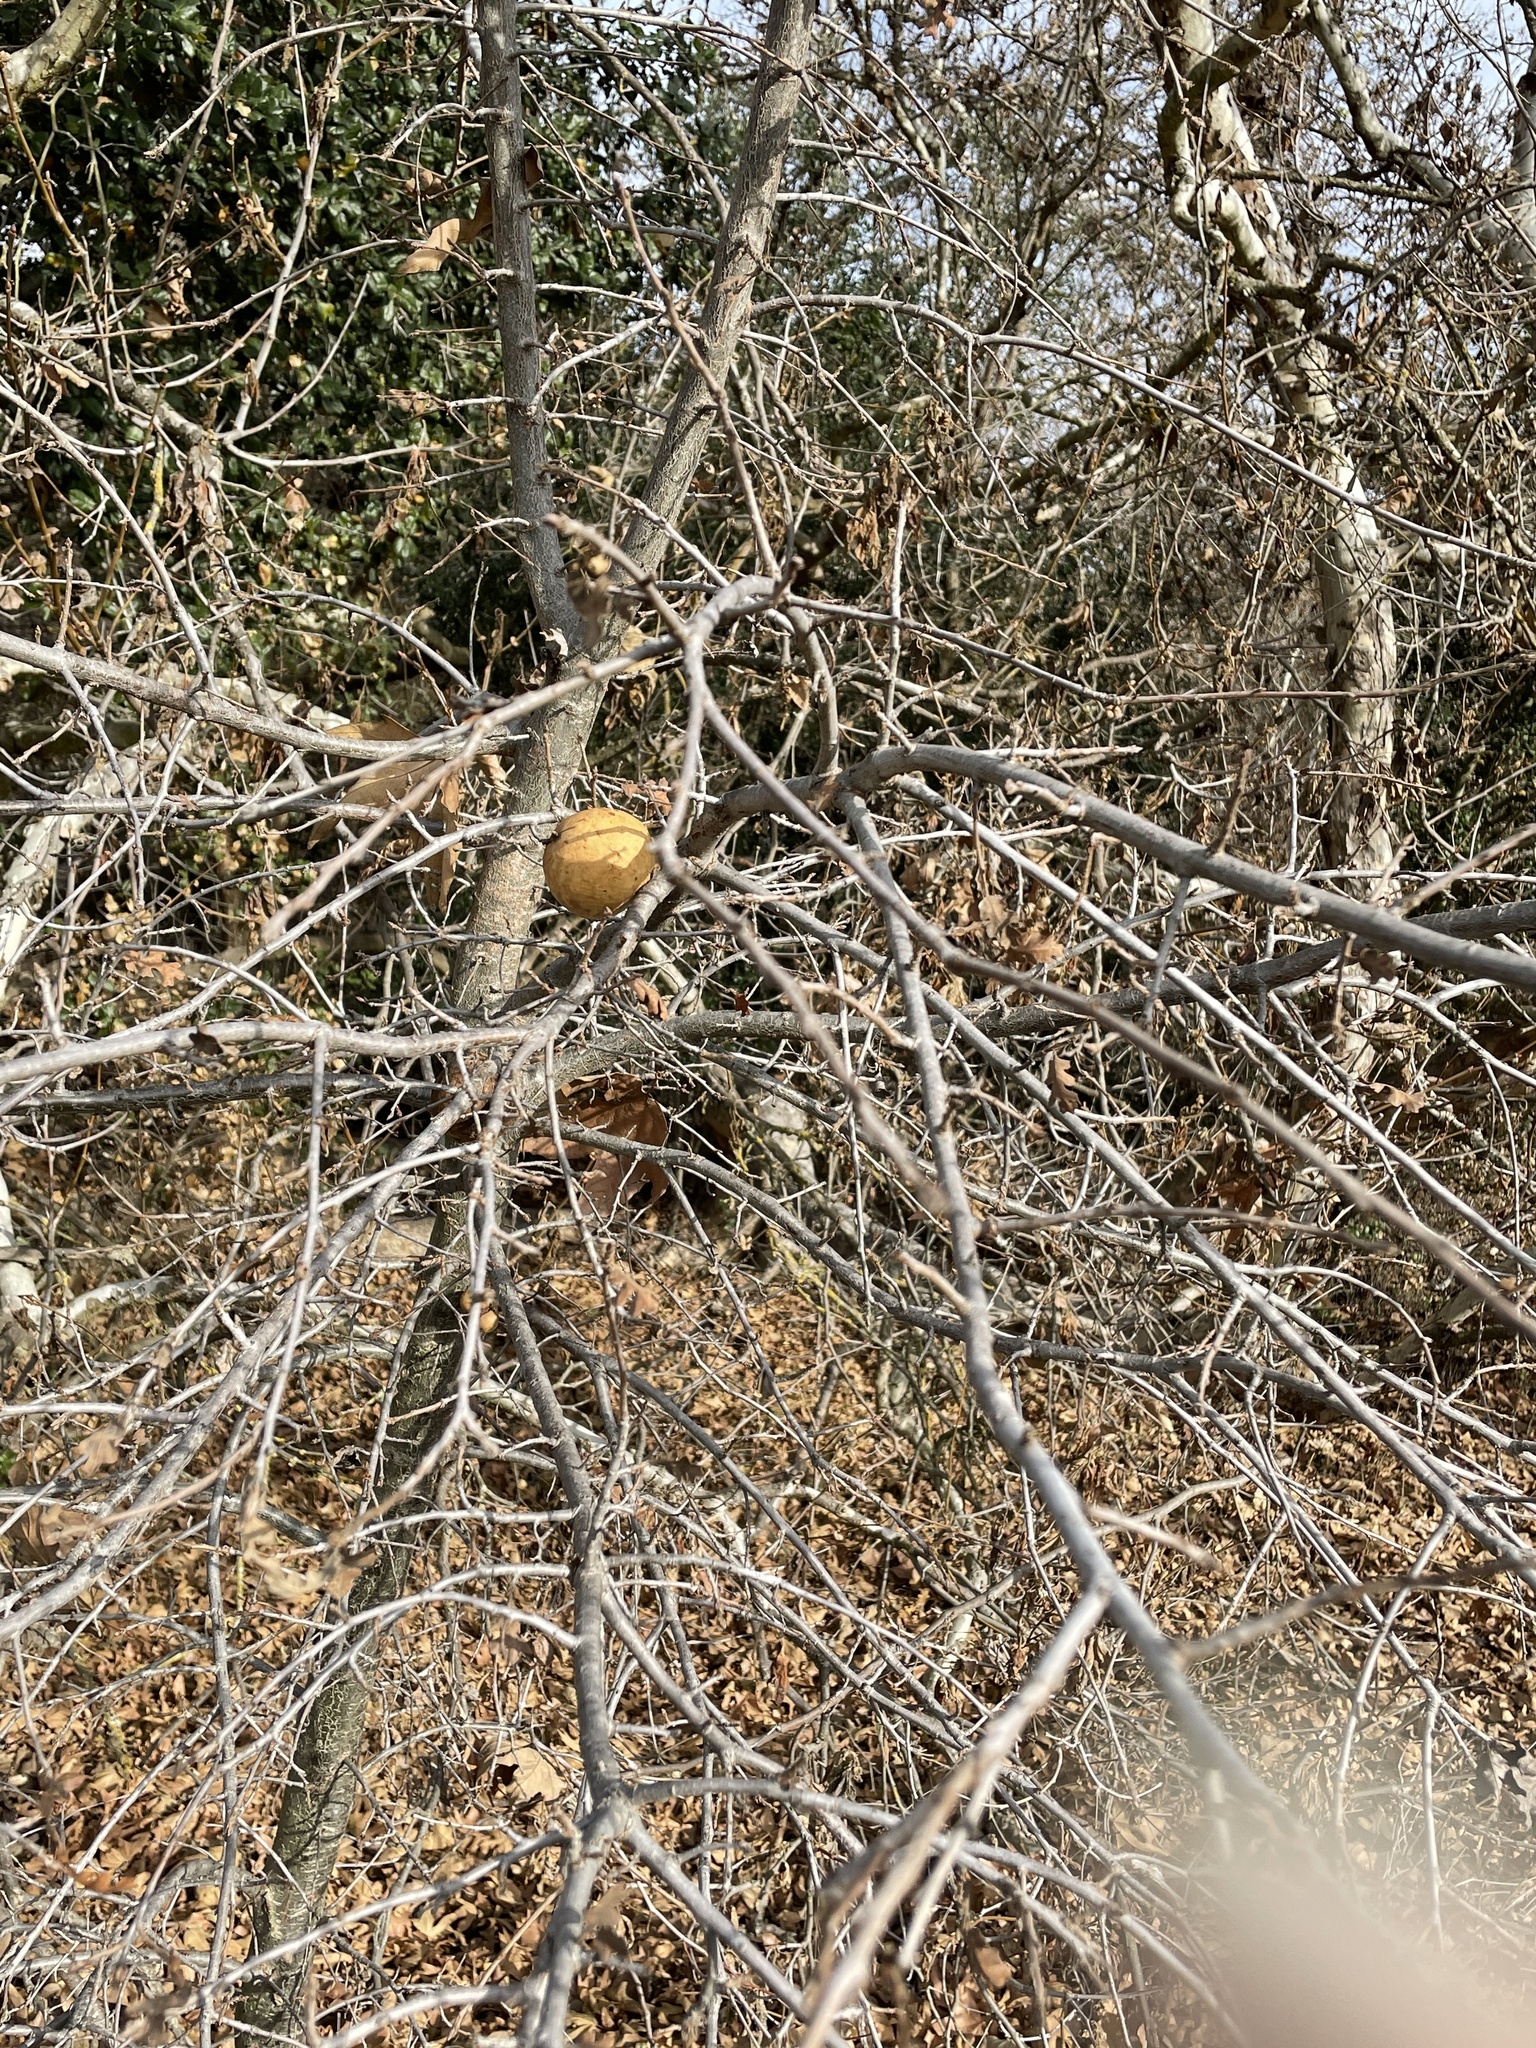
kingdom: Animalia
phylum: Arthropoda
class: Insecta
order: Hymenoptera
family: Cynipidae
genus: Andricus
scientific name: Andricus quercuscalifornicus
